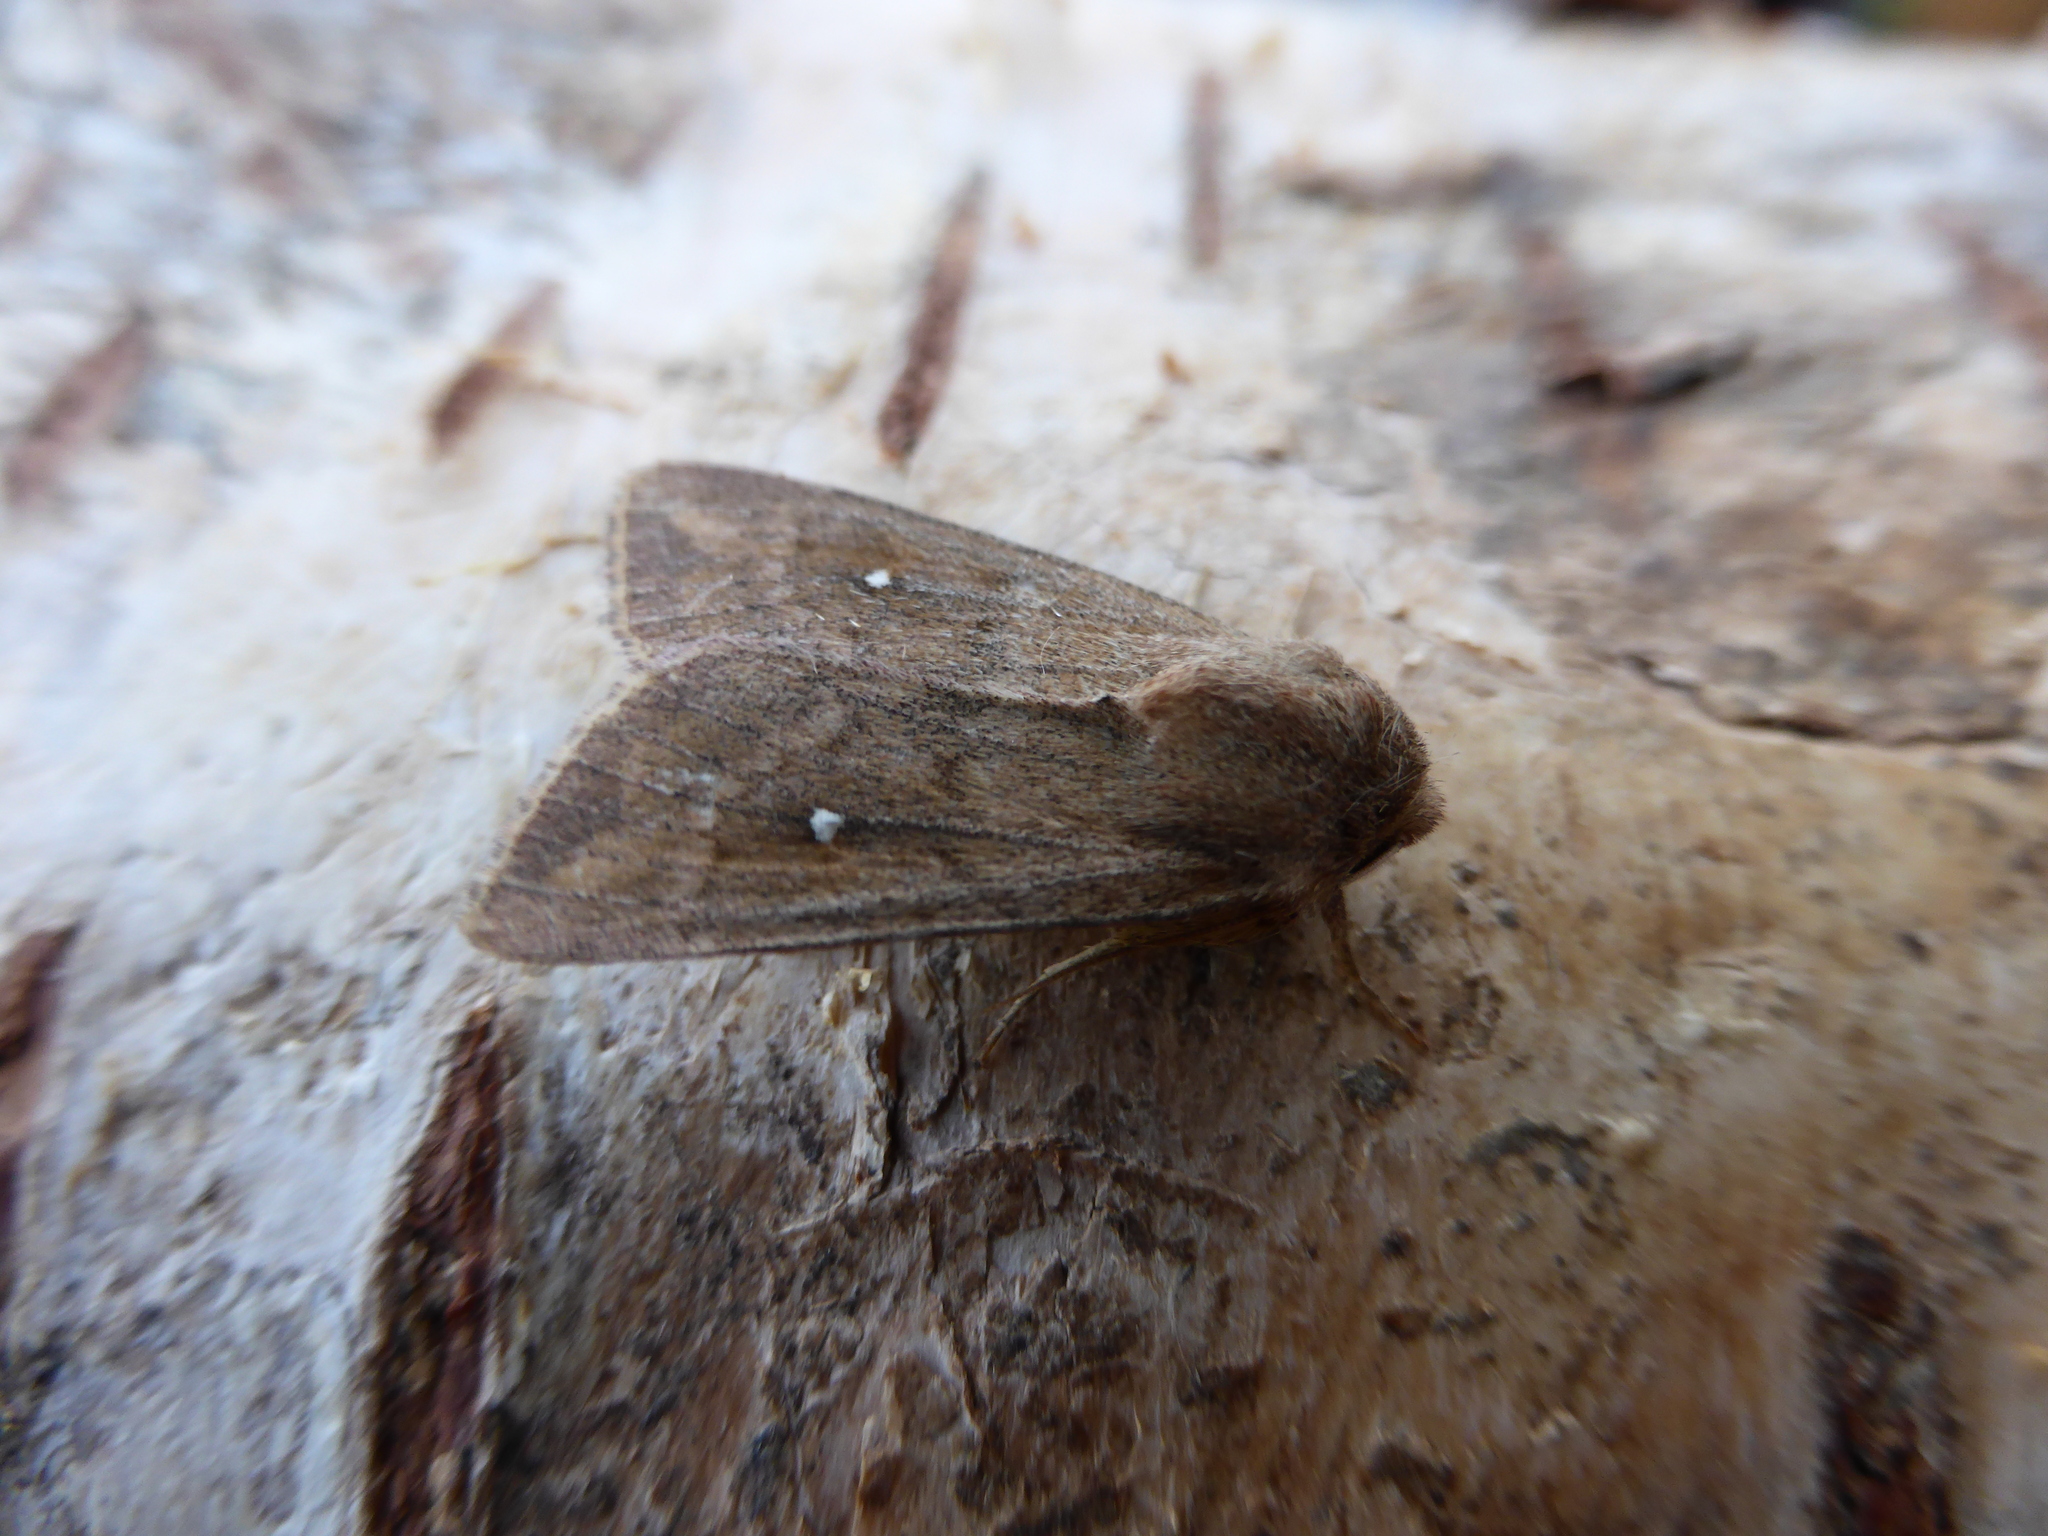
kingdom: Animalia
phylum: Arthropoda
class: Insecta
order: Lepidoptera
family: Noctuidae
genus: Mythimna
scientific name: Mythimna albipuncta
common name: White-point
